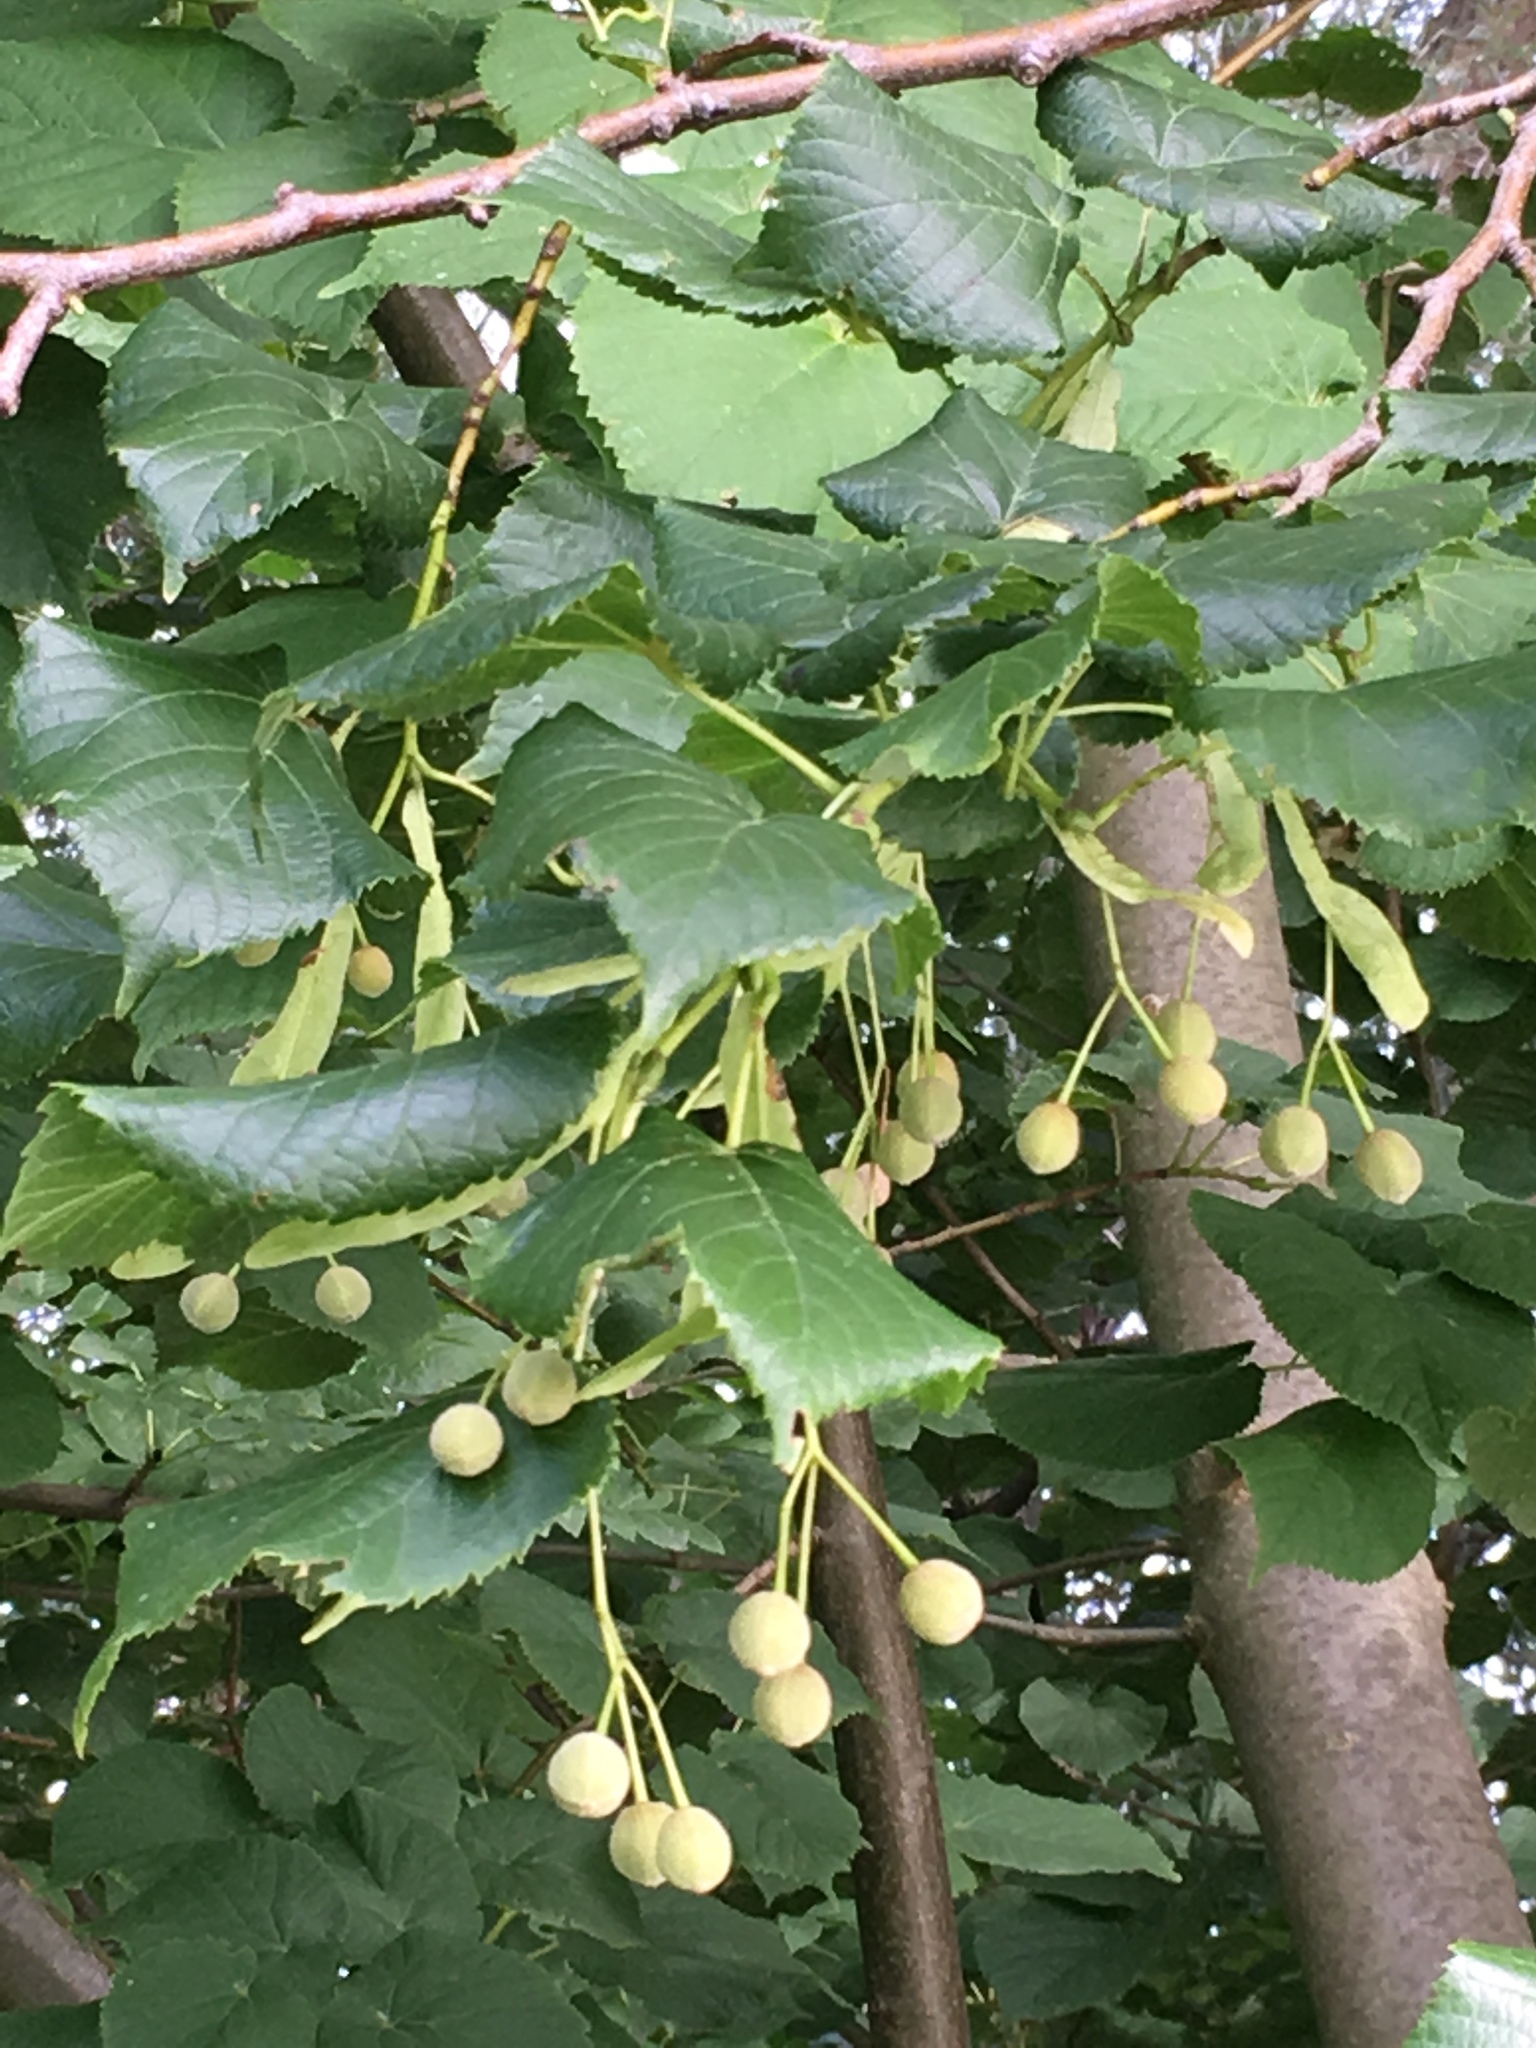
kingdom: Plantae
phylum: Tracheophyta
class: Magnoliopsida
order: Malvales
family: Malvaceae
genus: Tilia
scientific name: Tilia cordata
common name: Small-leaved lime
